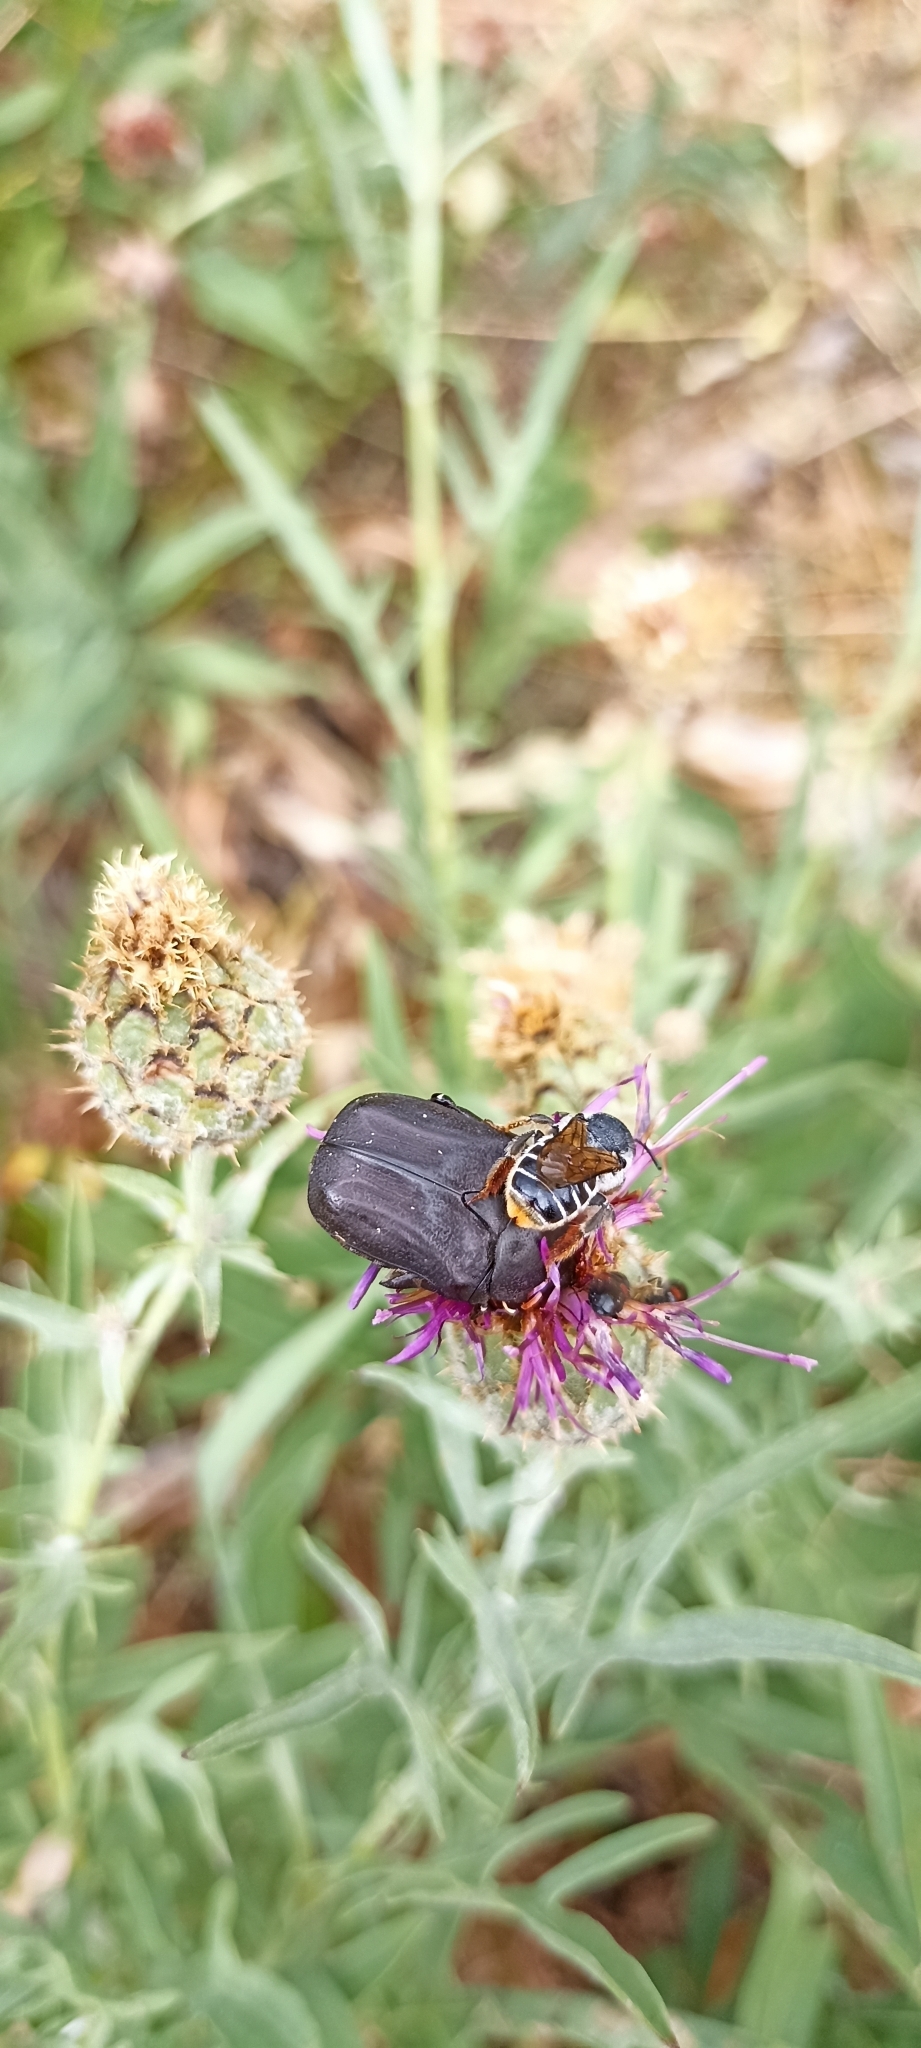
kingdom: Animalia
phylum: Arthropoda
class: Insecta
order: Coleoptera
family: Scarabaeidae
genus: Protaetia
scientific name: Protaetia morio
